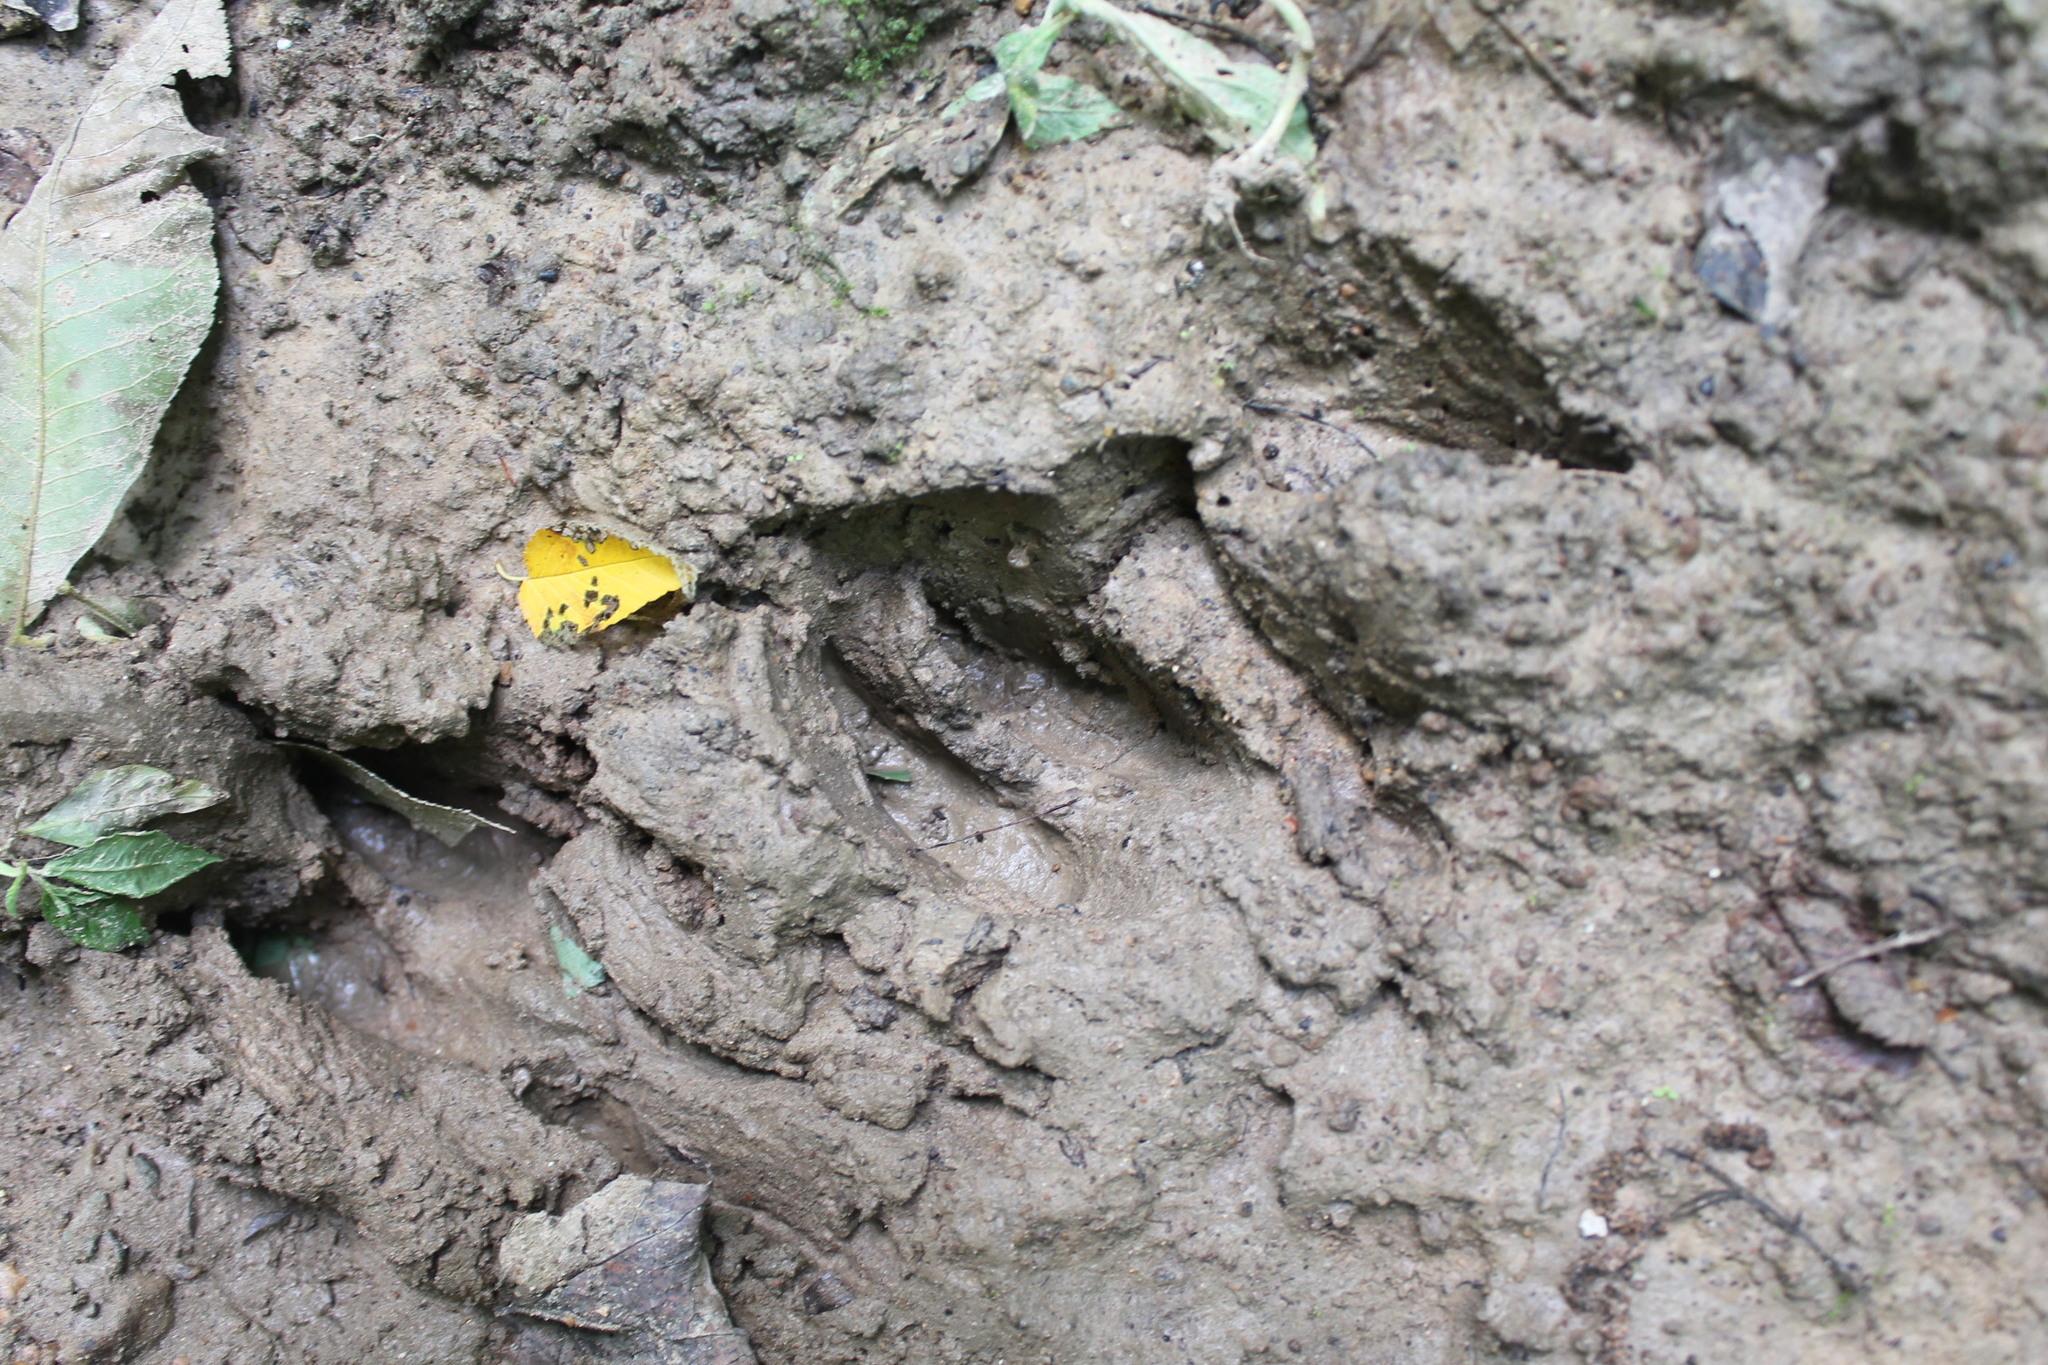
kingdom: Animalia
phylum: Chordata
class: Mammalia
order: Artiodactyla
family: Cervidae
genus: Odocoileus
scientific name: Odocoileus virginianus
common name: White-tailed deer
